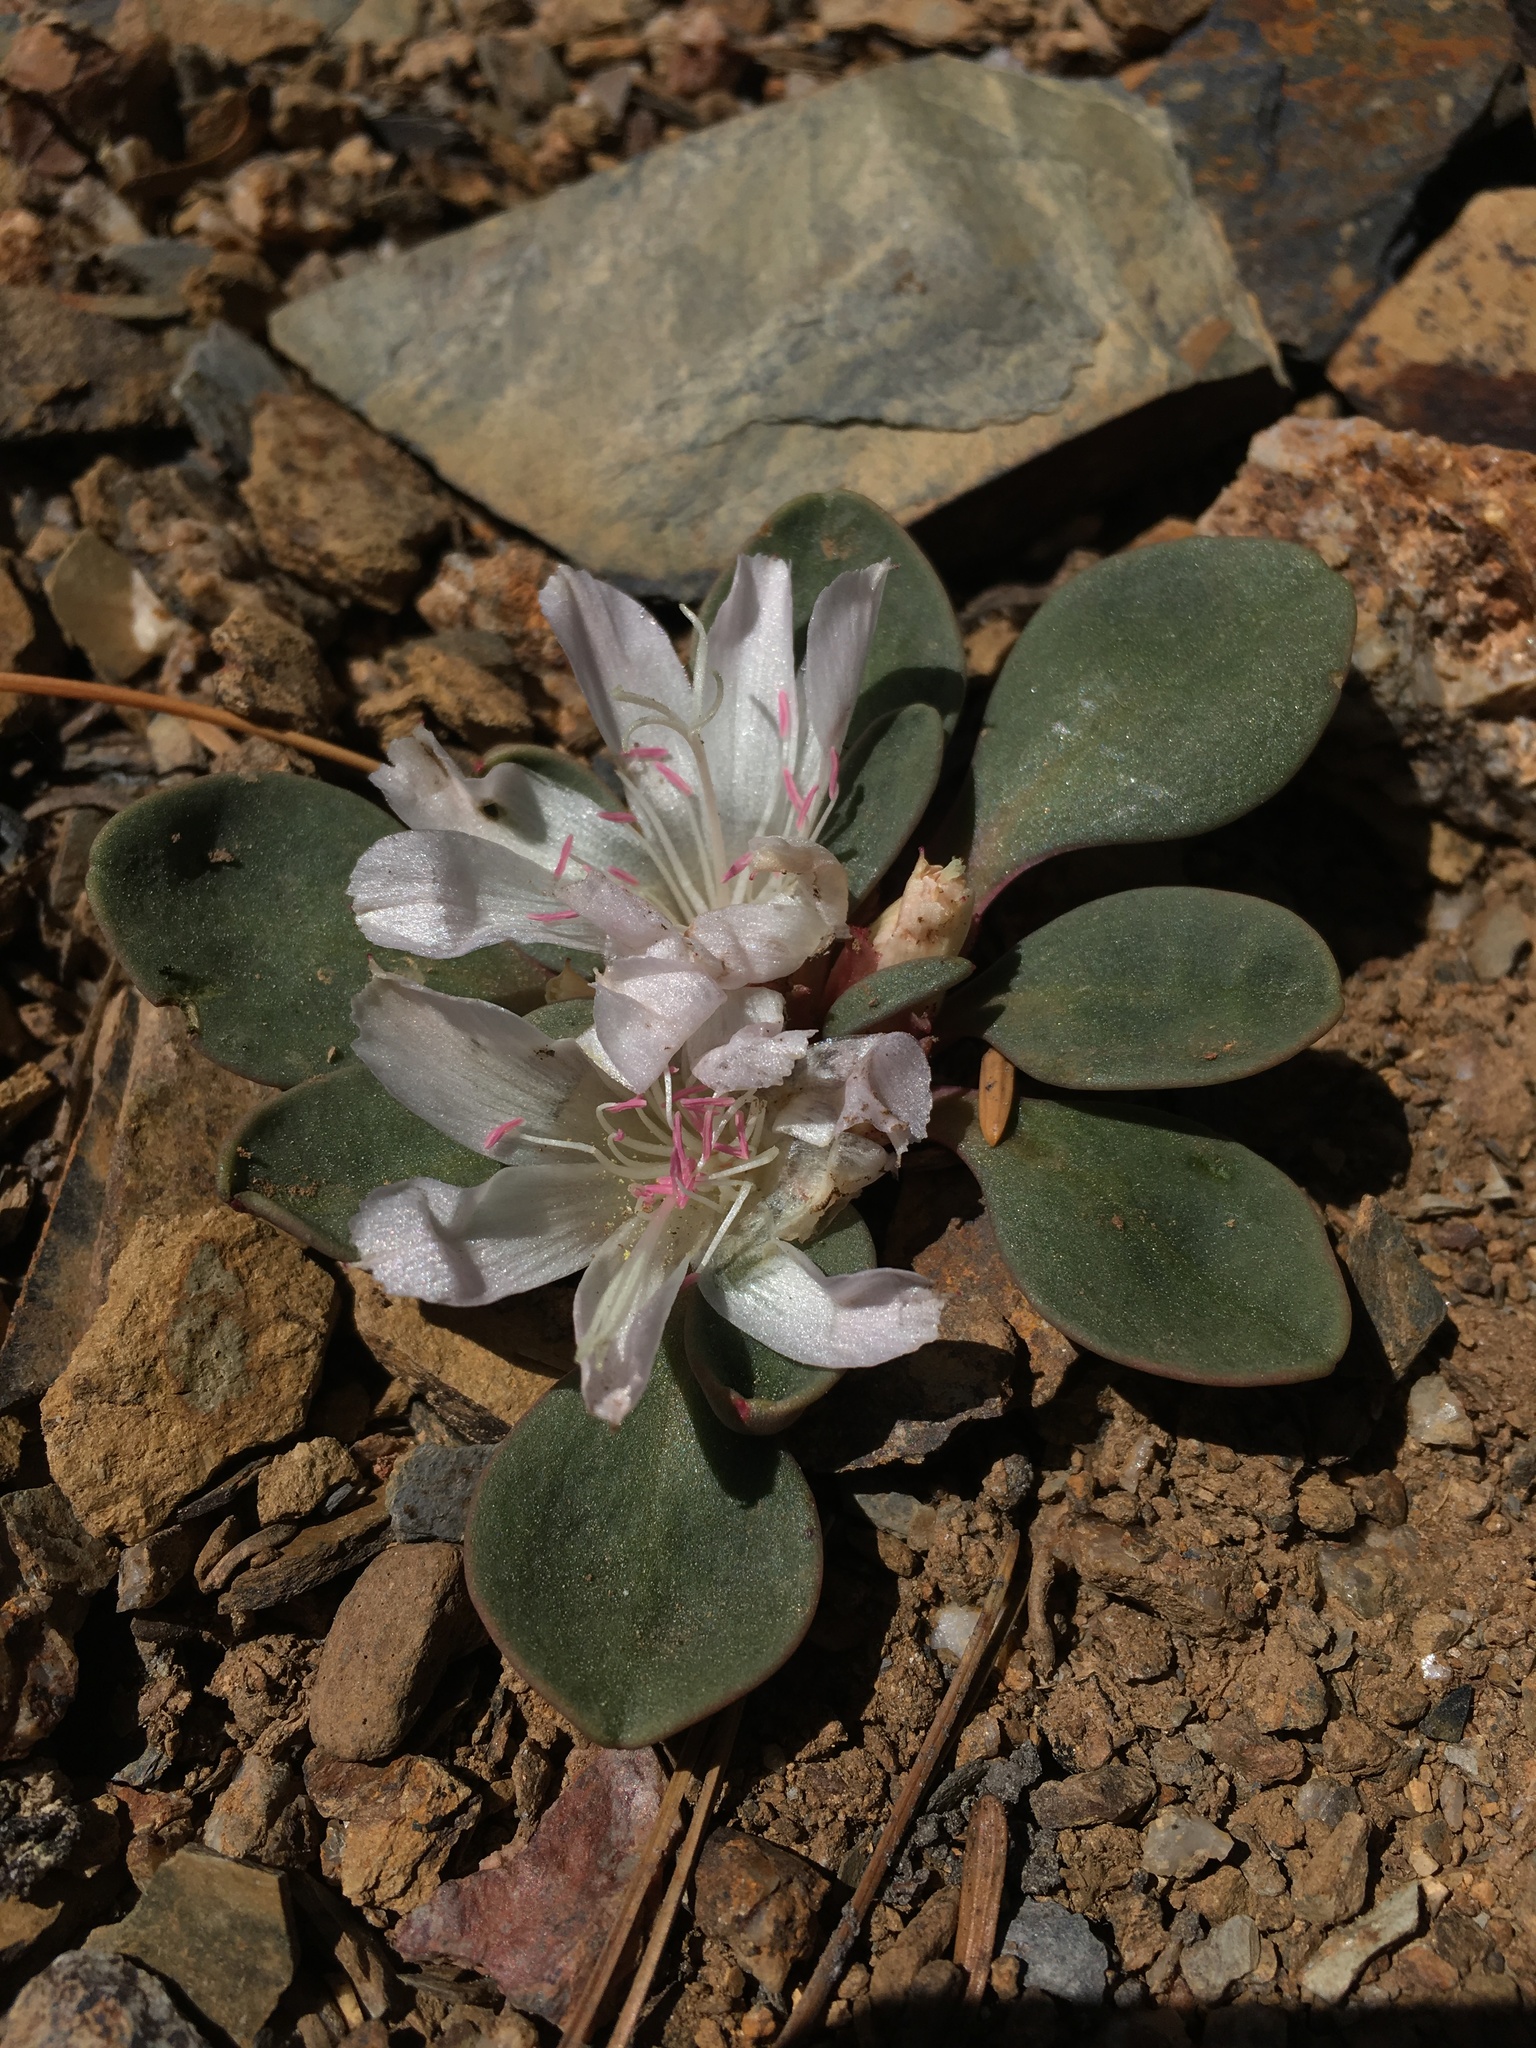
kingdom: Plantae
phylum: Tracheophyta
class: Magnoliopsida
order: Caryophyllales
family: Montiaceae
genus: Lewisia
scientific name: Lewisia kelloggii
